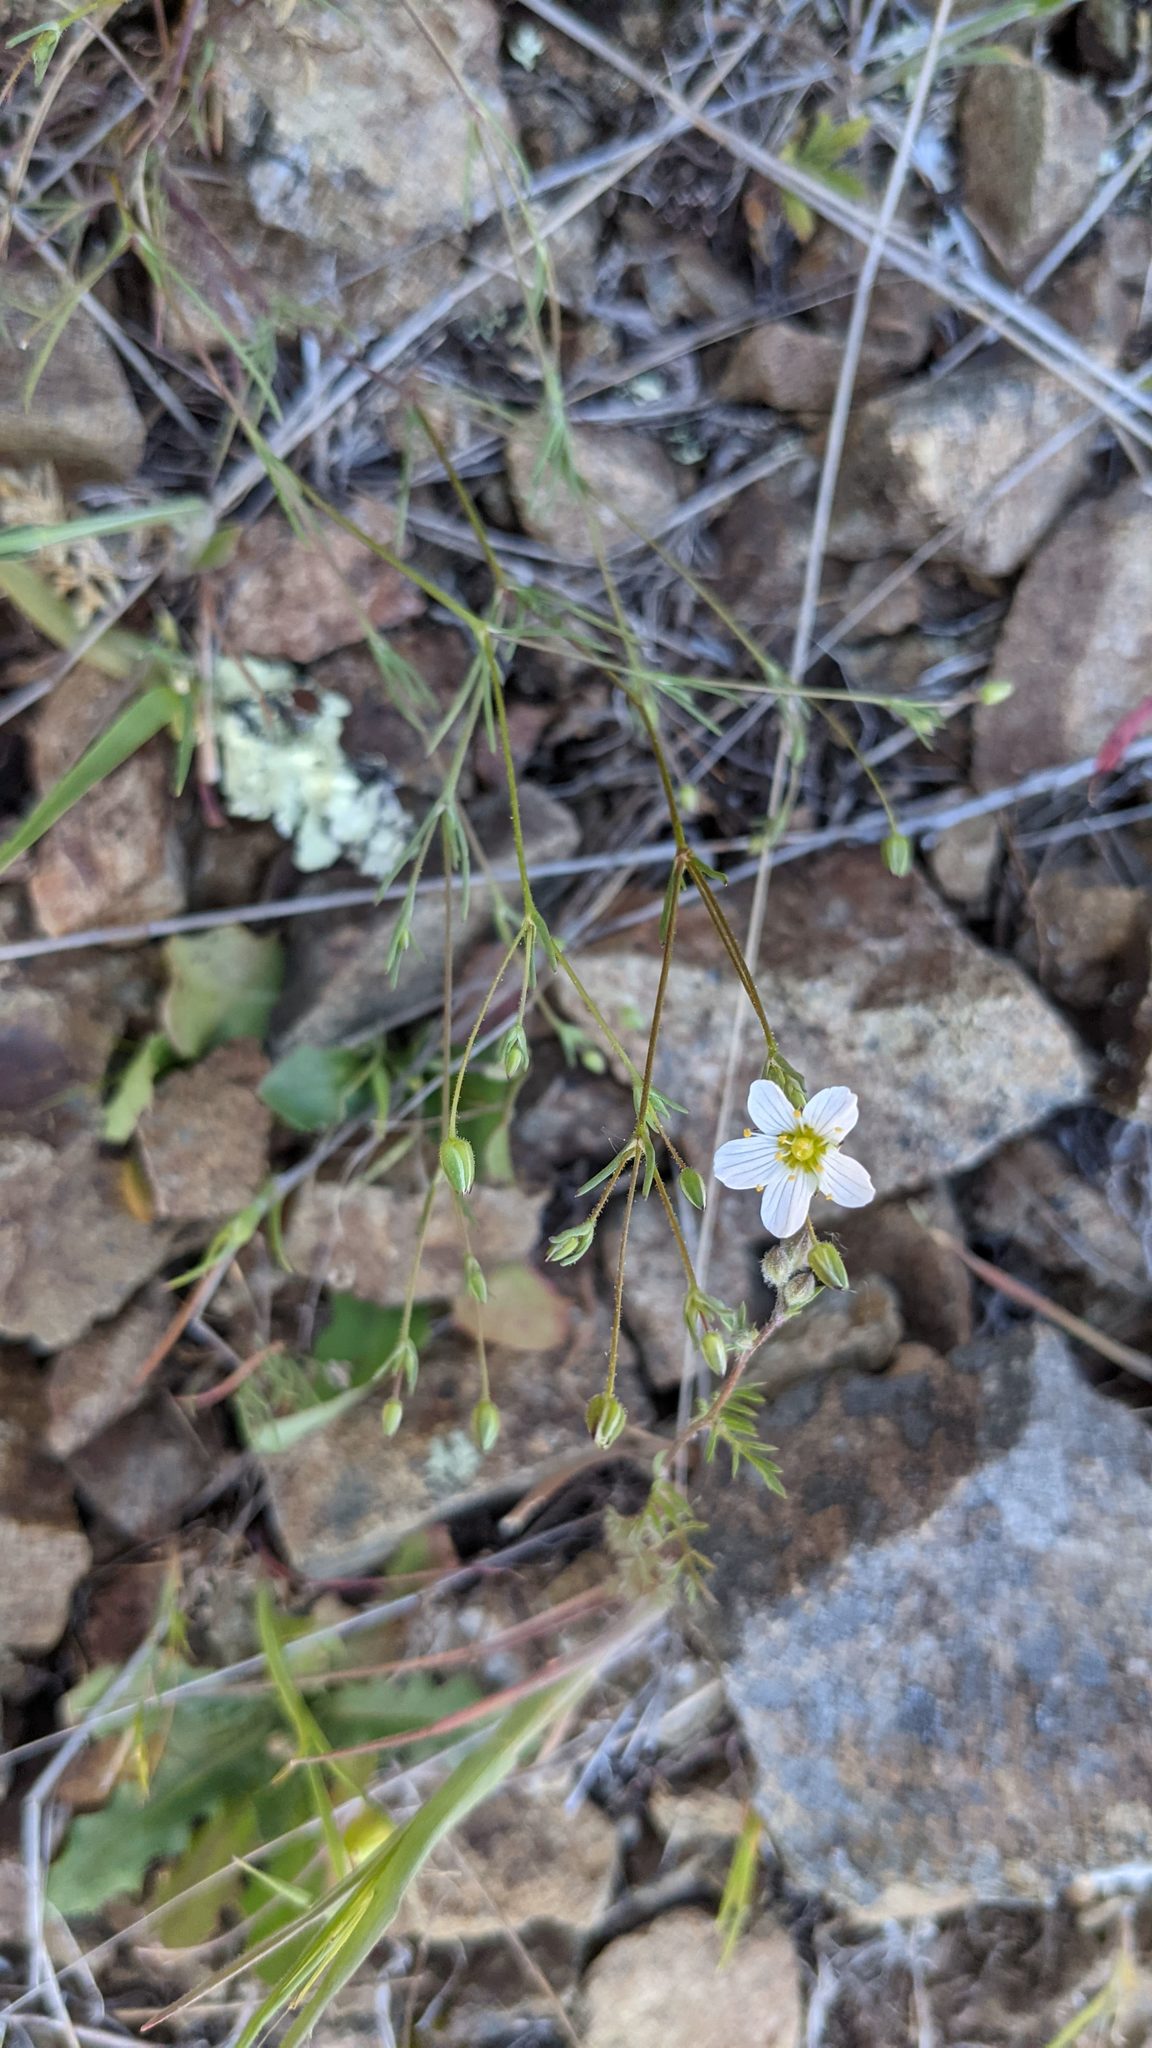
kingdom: Plantae
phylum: Tracheophyta
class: Magnoliopsida
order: Caryophyllales
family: Caryophyllaceae
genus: Sabulina
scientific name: Sabulina douglasii
